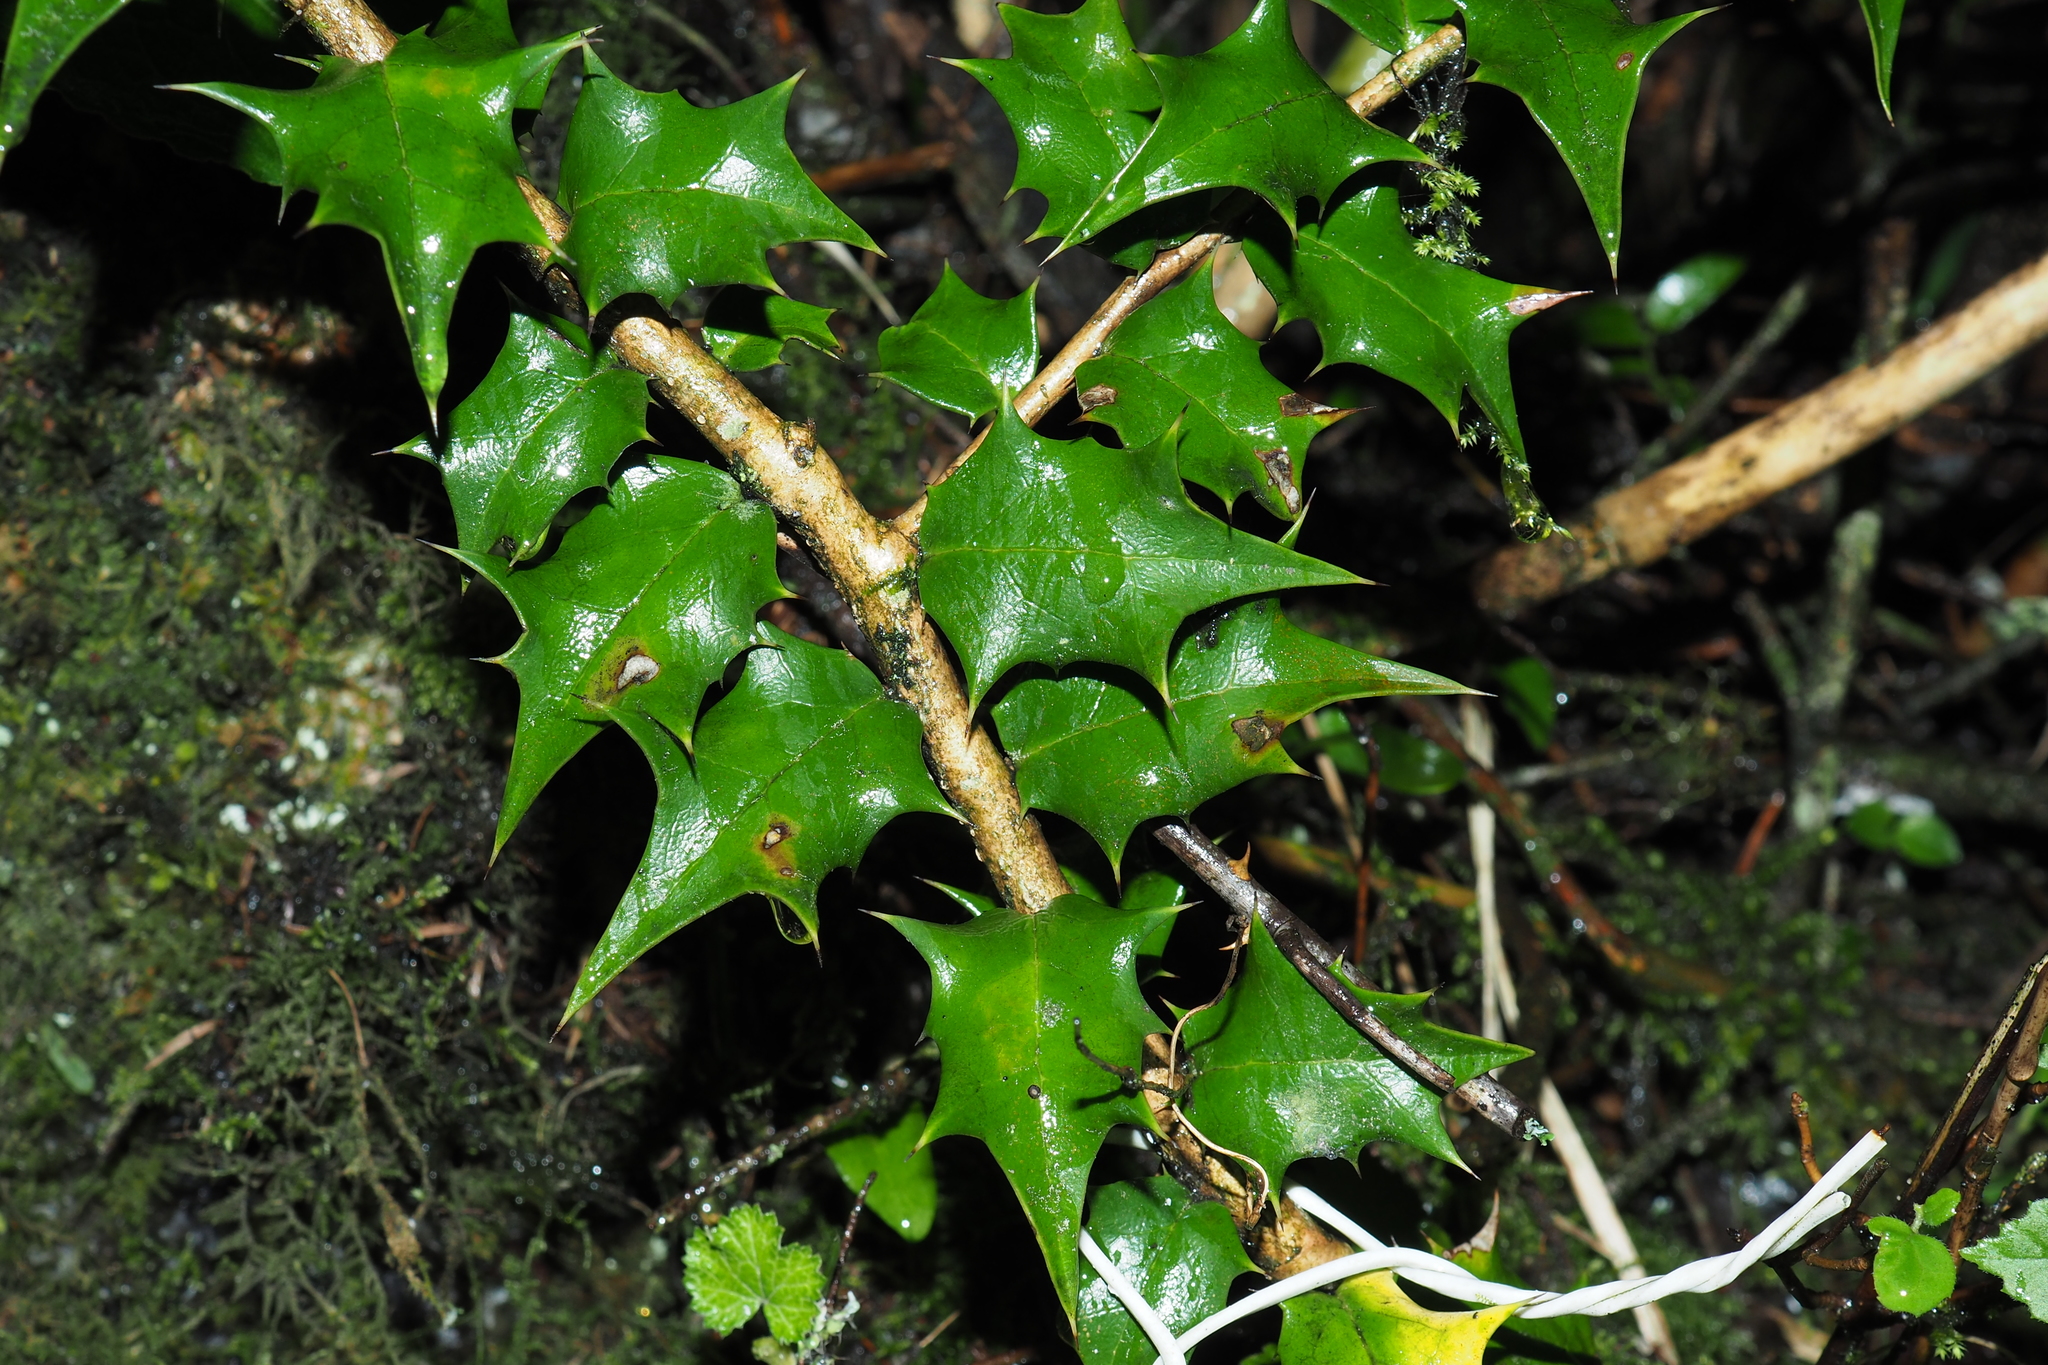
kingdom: Plantae
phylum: Tracheophyta
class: Magnoliopsida
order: Aquifoliales
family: Aquifoliaceae
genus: Ilex
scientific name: Ilex bioritsensis
